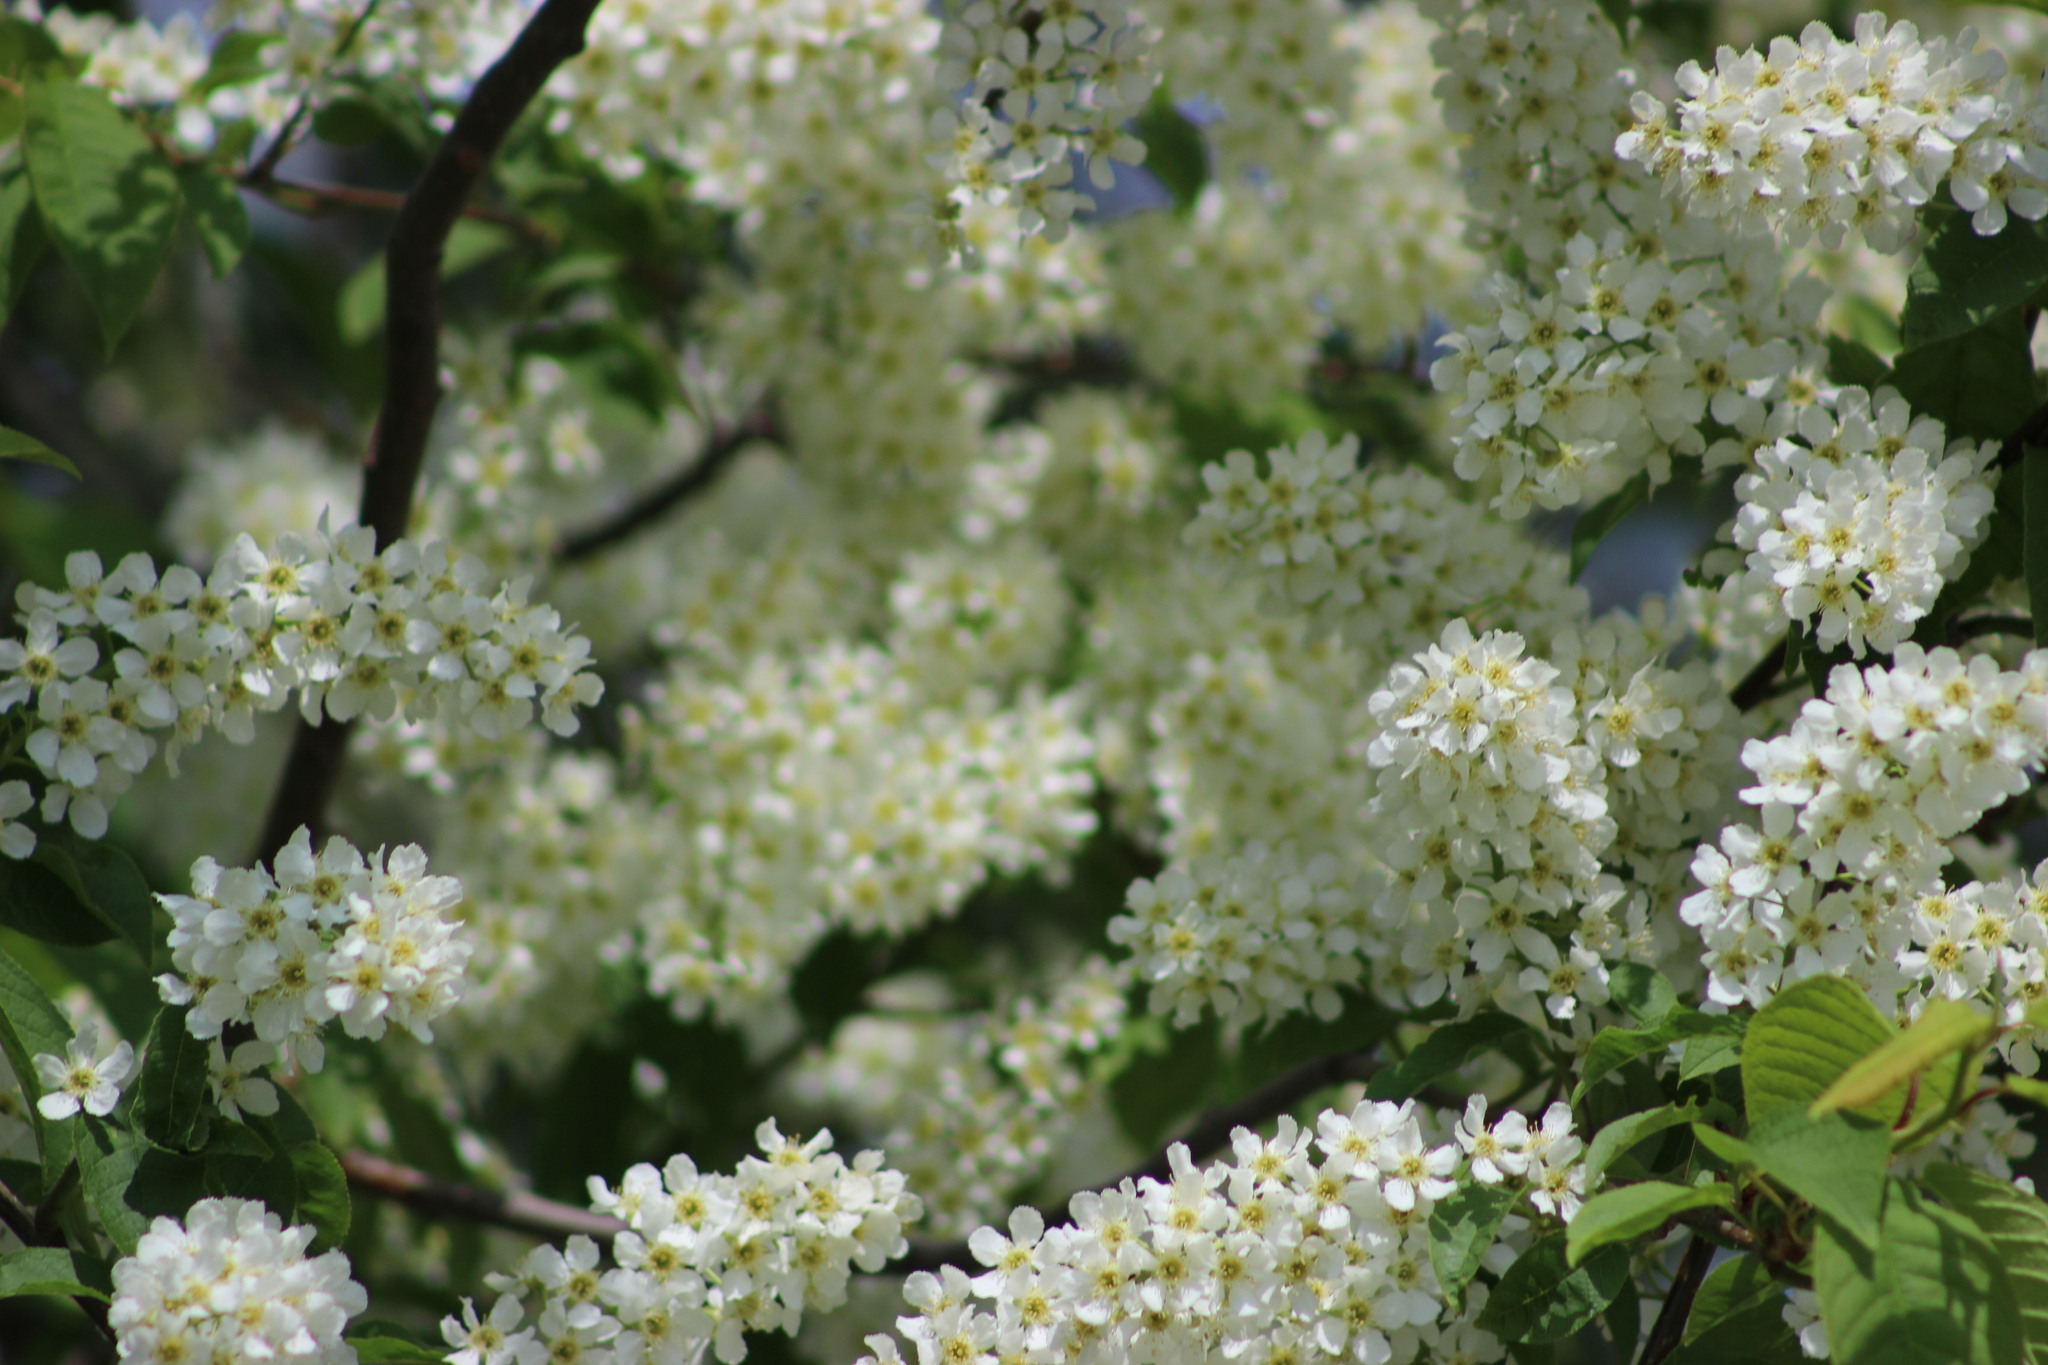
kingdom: Plantae
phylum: Tracheophyta
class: Magnoliopsida
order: Rosales
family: Rosaceae
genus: Prunus
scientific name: Prunus padus
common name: Bird cherry
